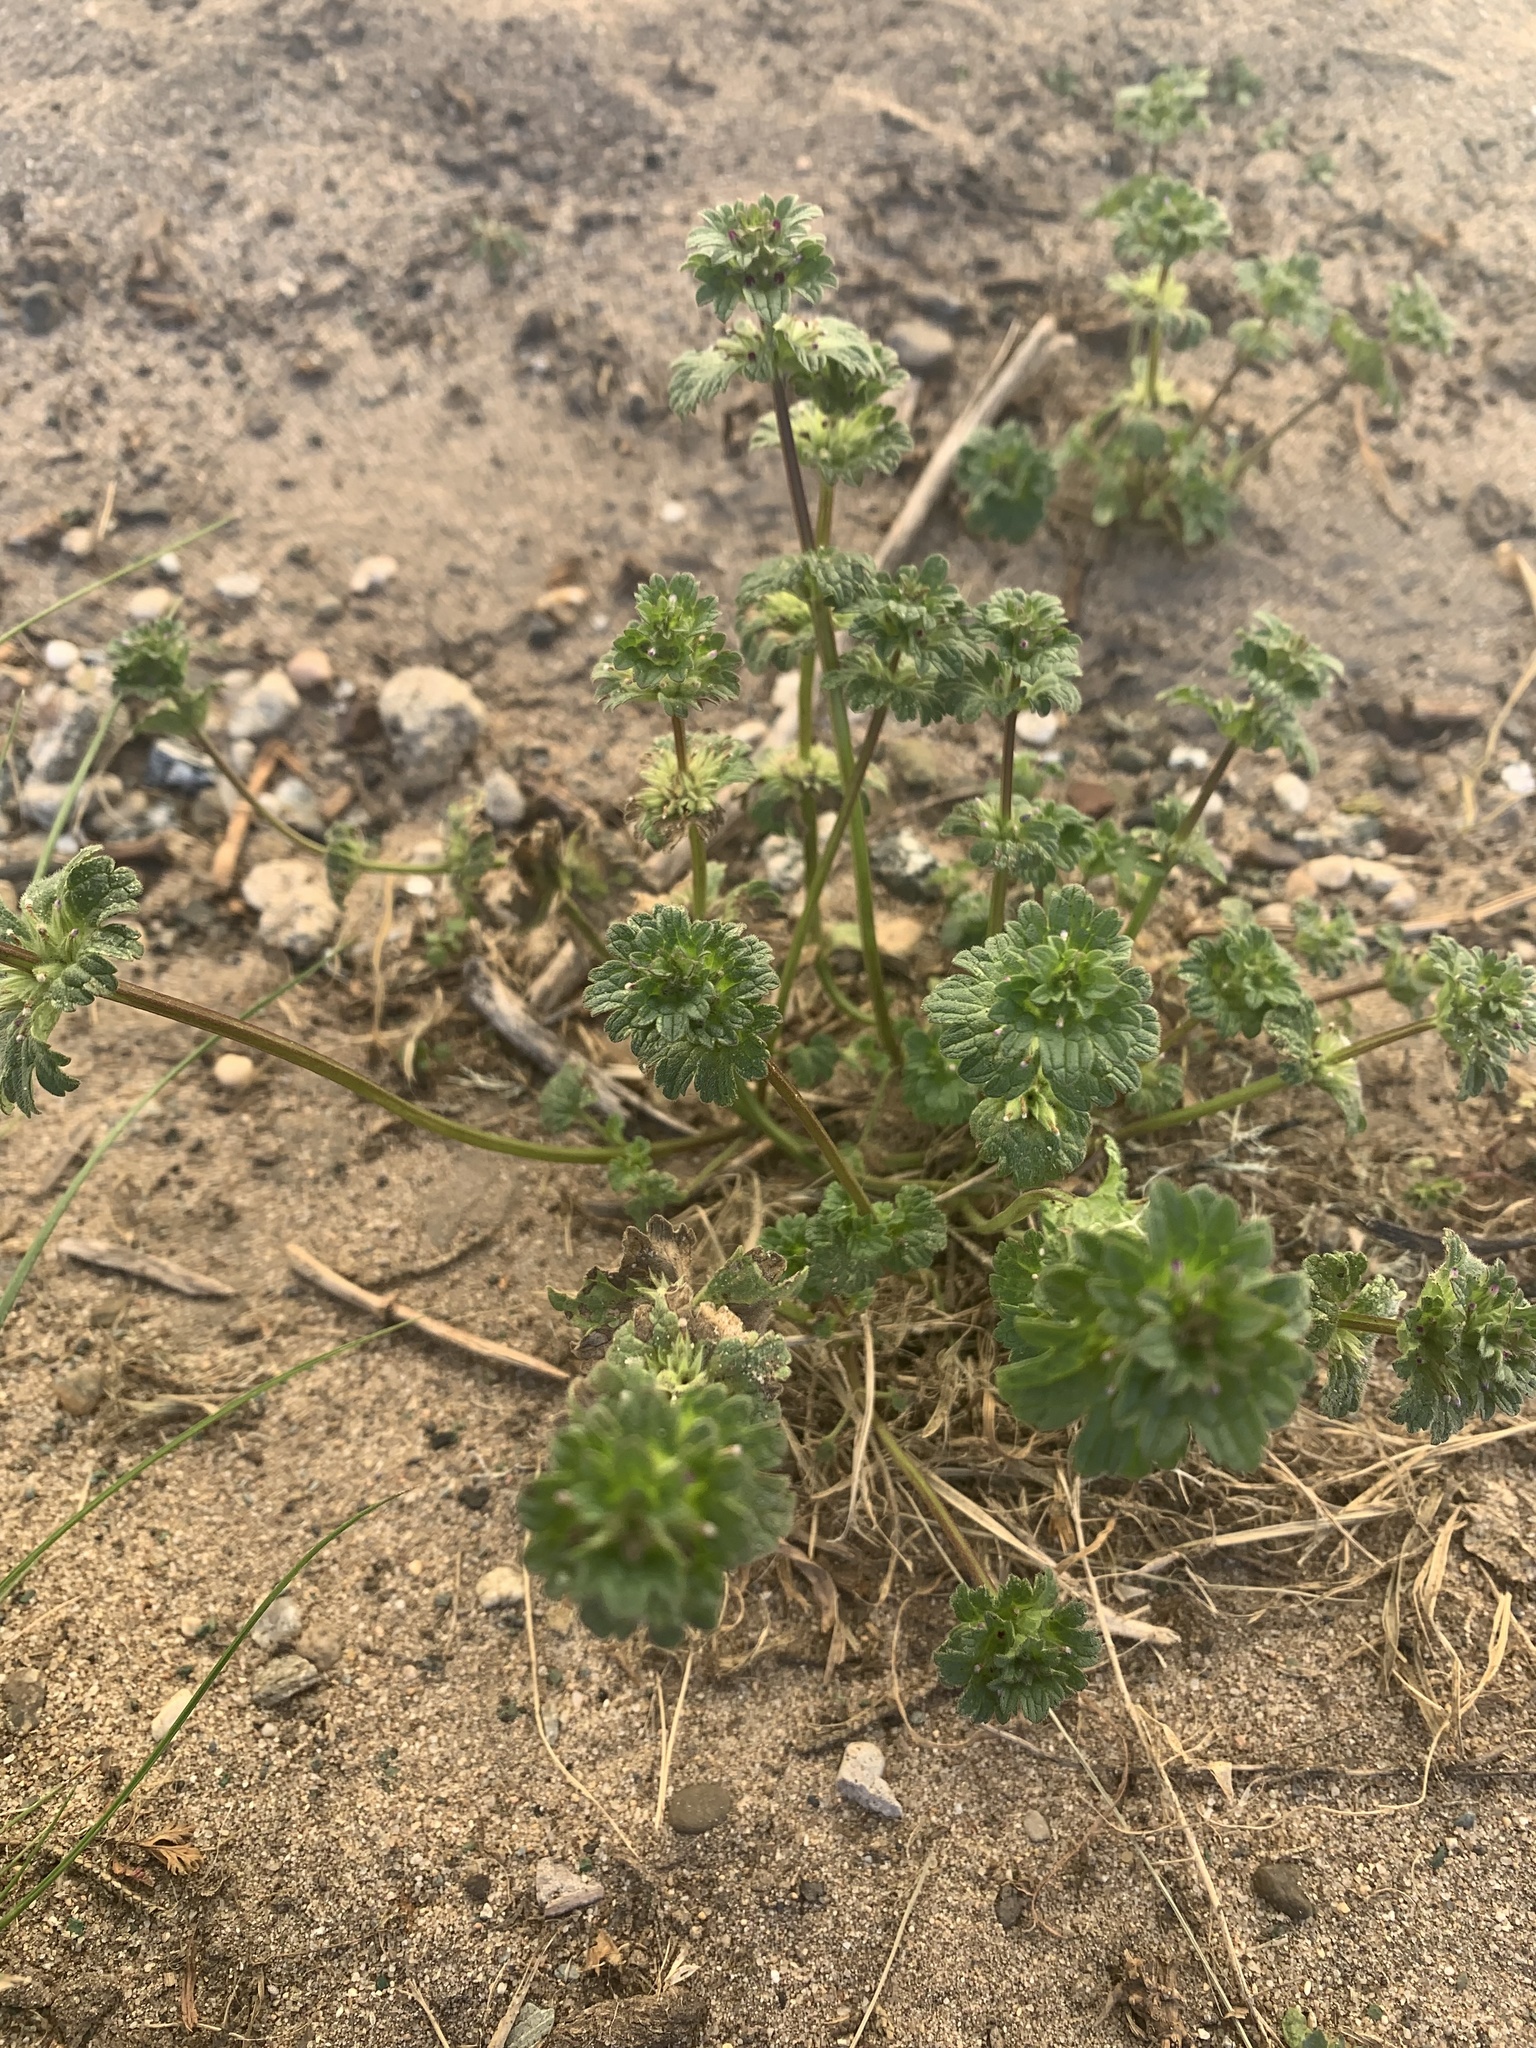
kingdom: Plantae
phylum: Tracheophyta
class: Magnoliopsida
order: Lamiales
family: Lamiaceae
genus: Lamium
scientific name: Lamium amplexicaule
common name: Henbit dead-nettle
